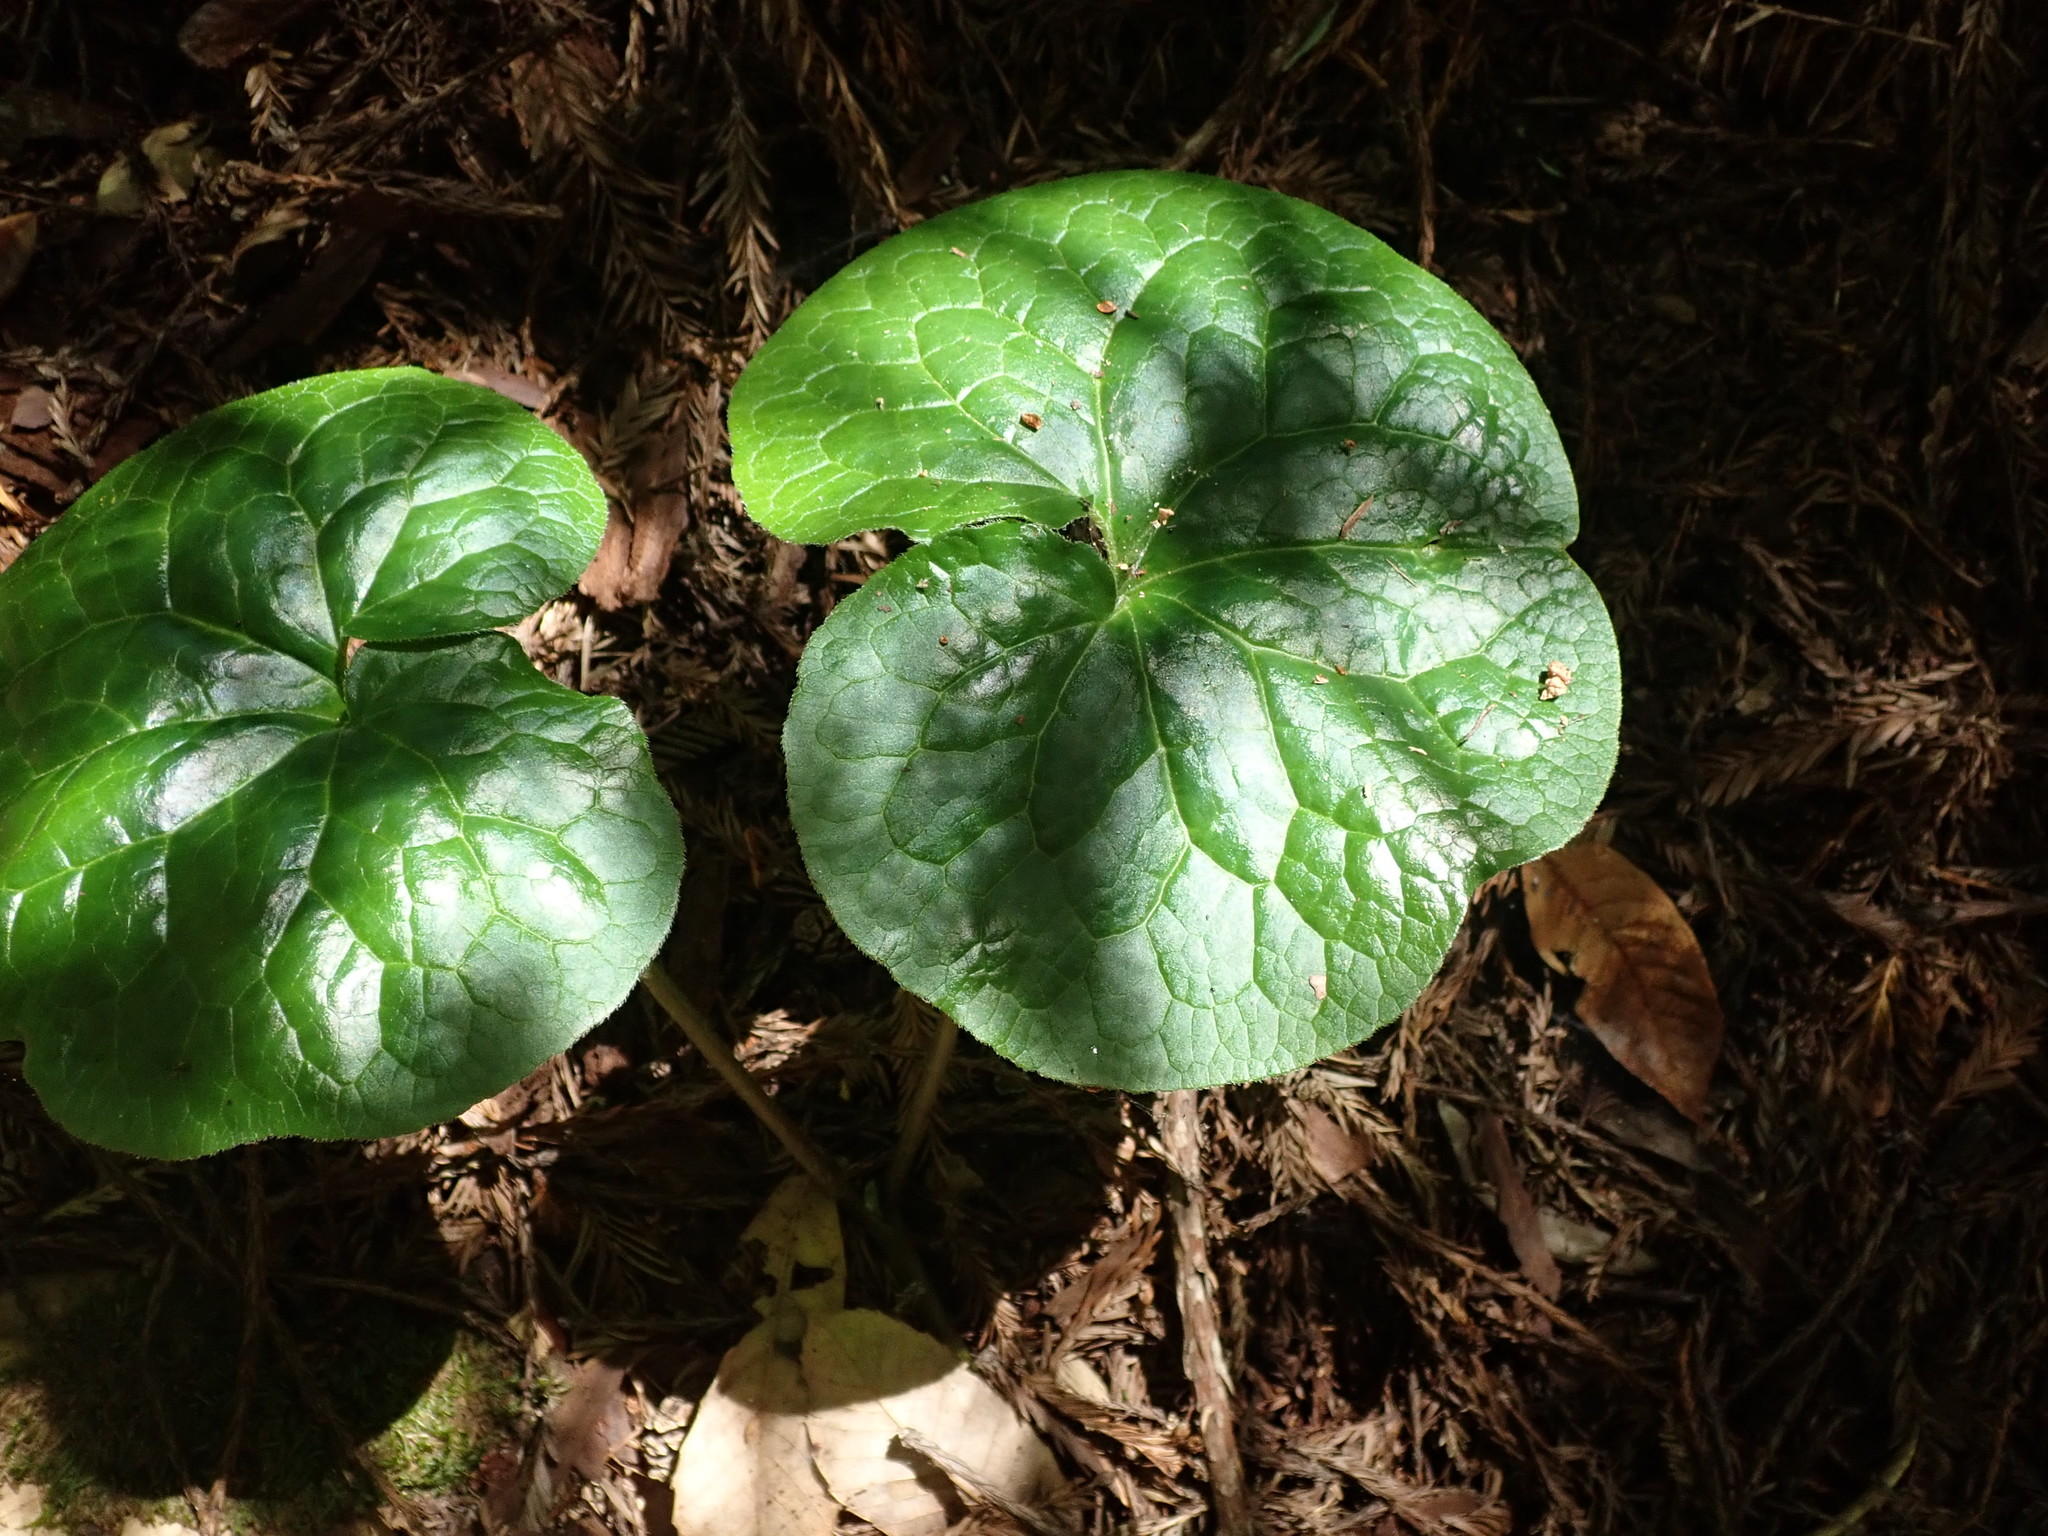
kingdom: Plantae
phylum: Tracheophyta
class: Magnoliopsida
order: Piperales
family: Aristolochiaceae
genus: Asarum
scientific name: Asarum caudatum
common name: Wild ginger
